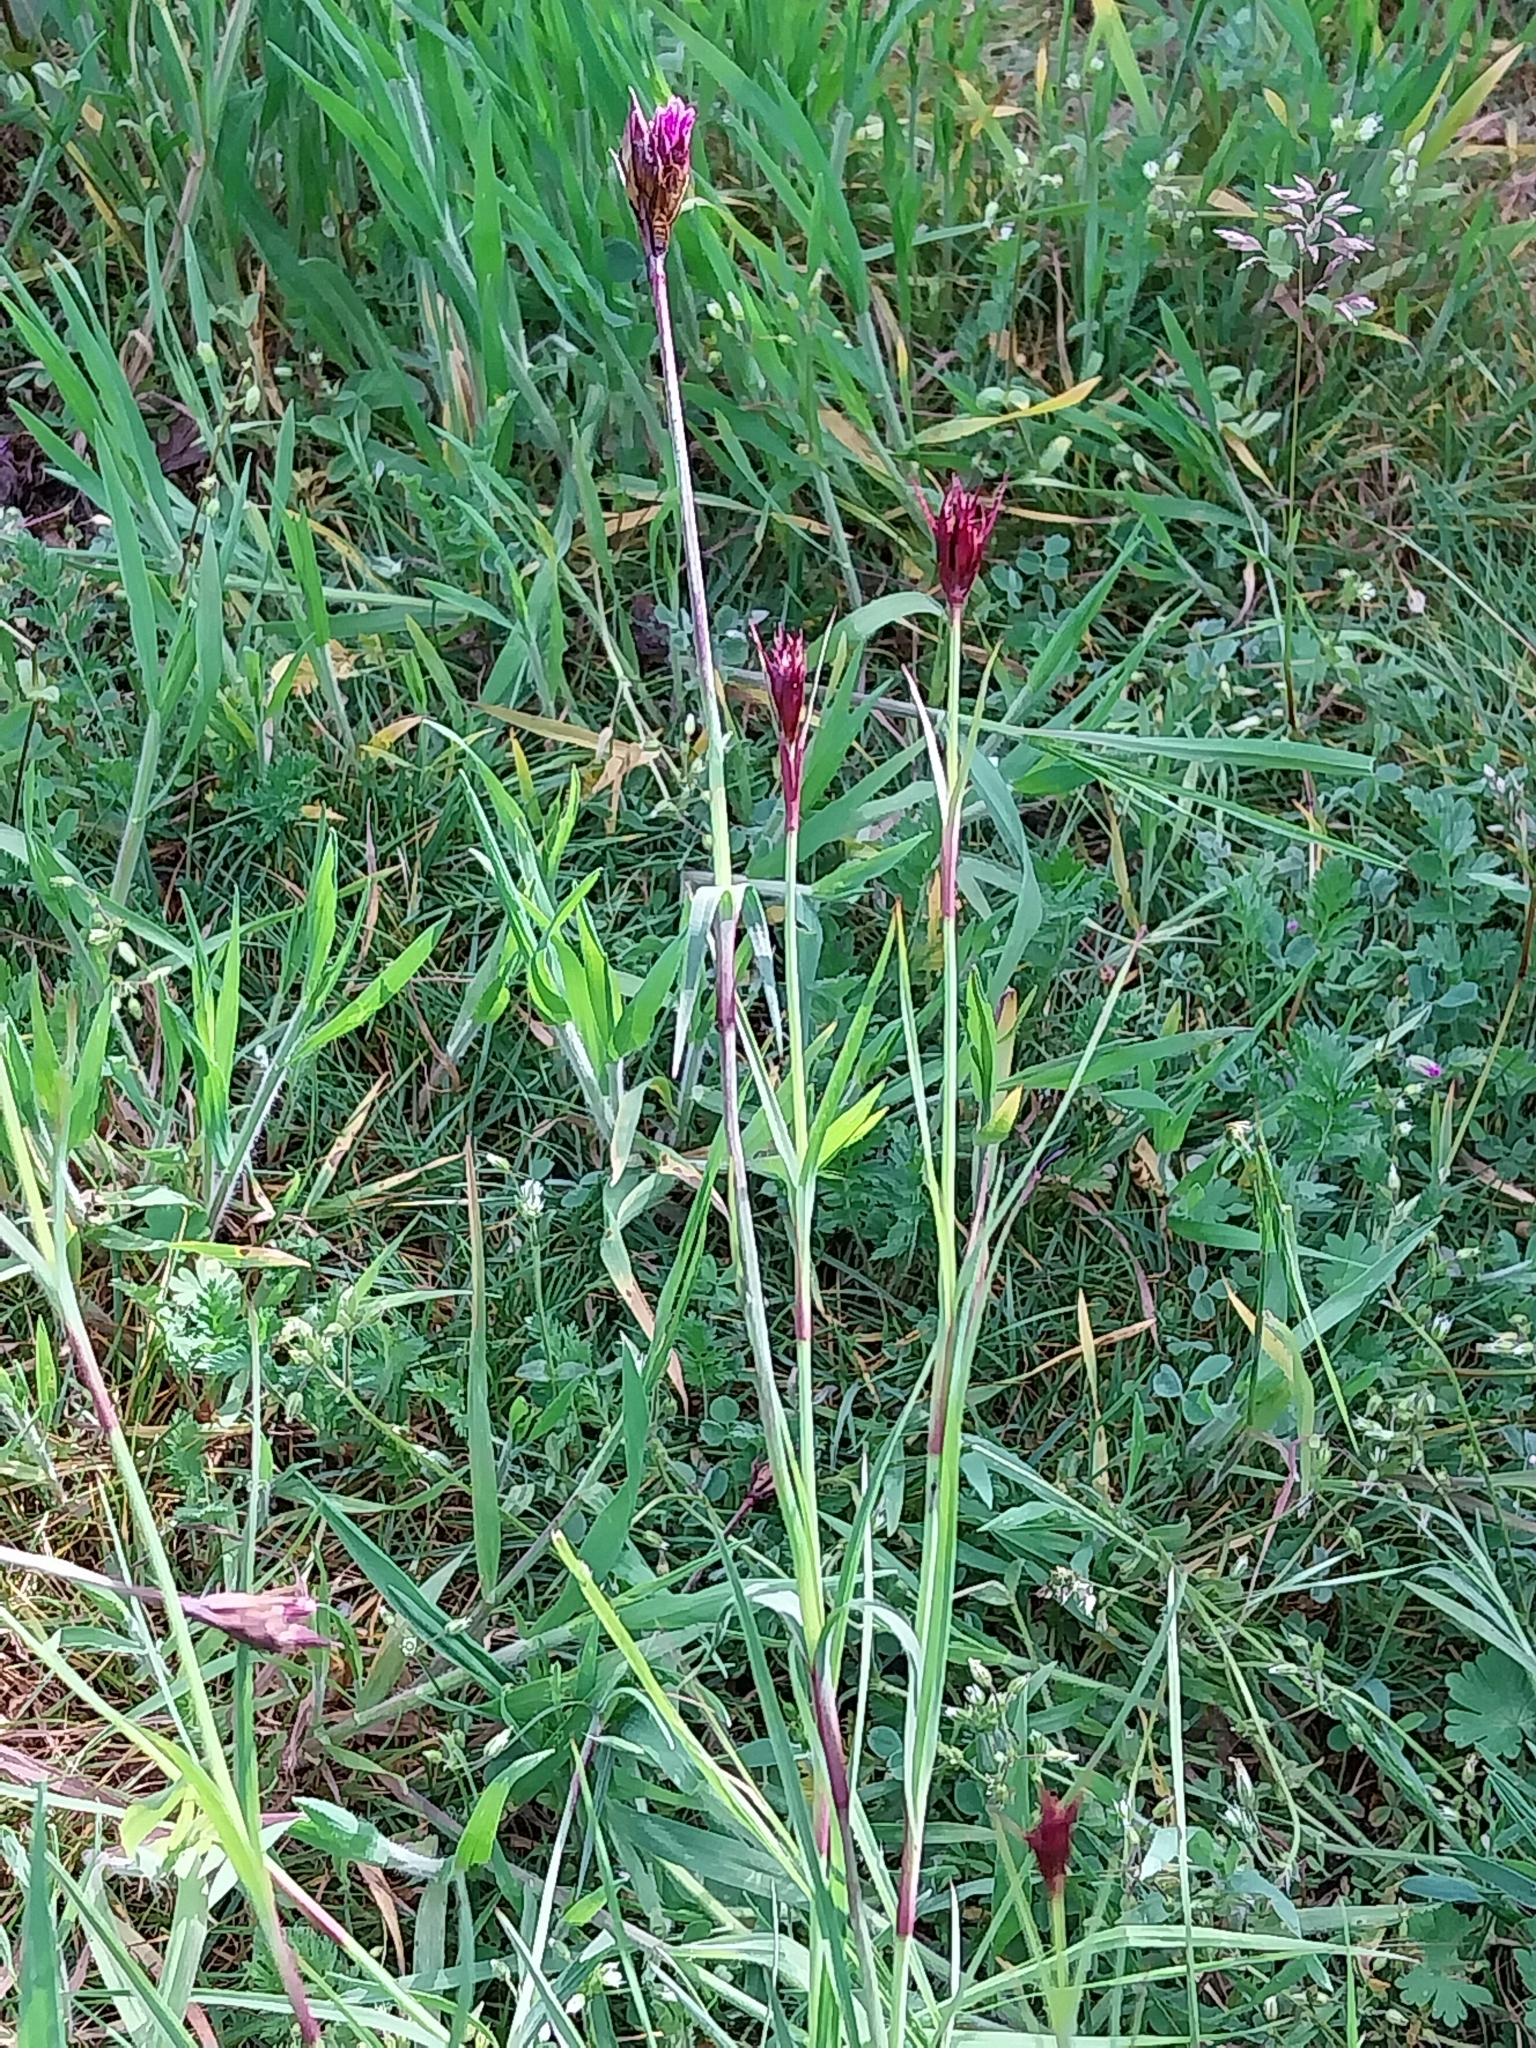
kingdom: Plantae
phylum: Tracheophyta
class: Magnoliopsida
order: Caryophyllales
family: Caryophyllaceae
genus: Dianthus
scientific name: Dianthus carthusianorum
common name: Carthusian pink
